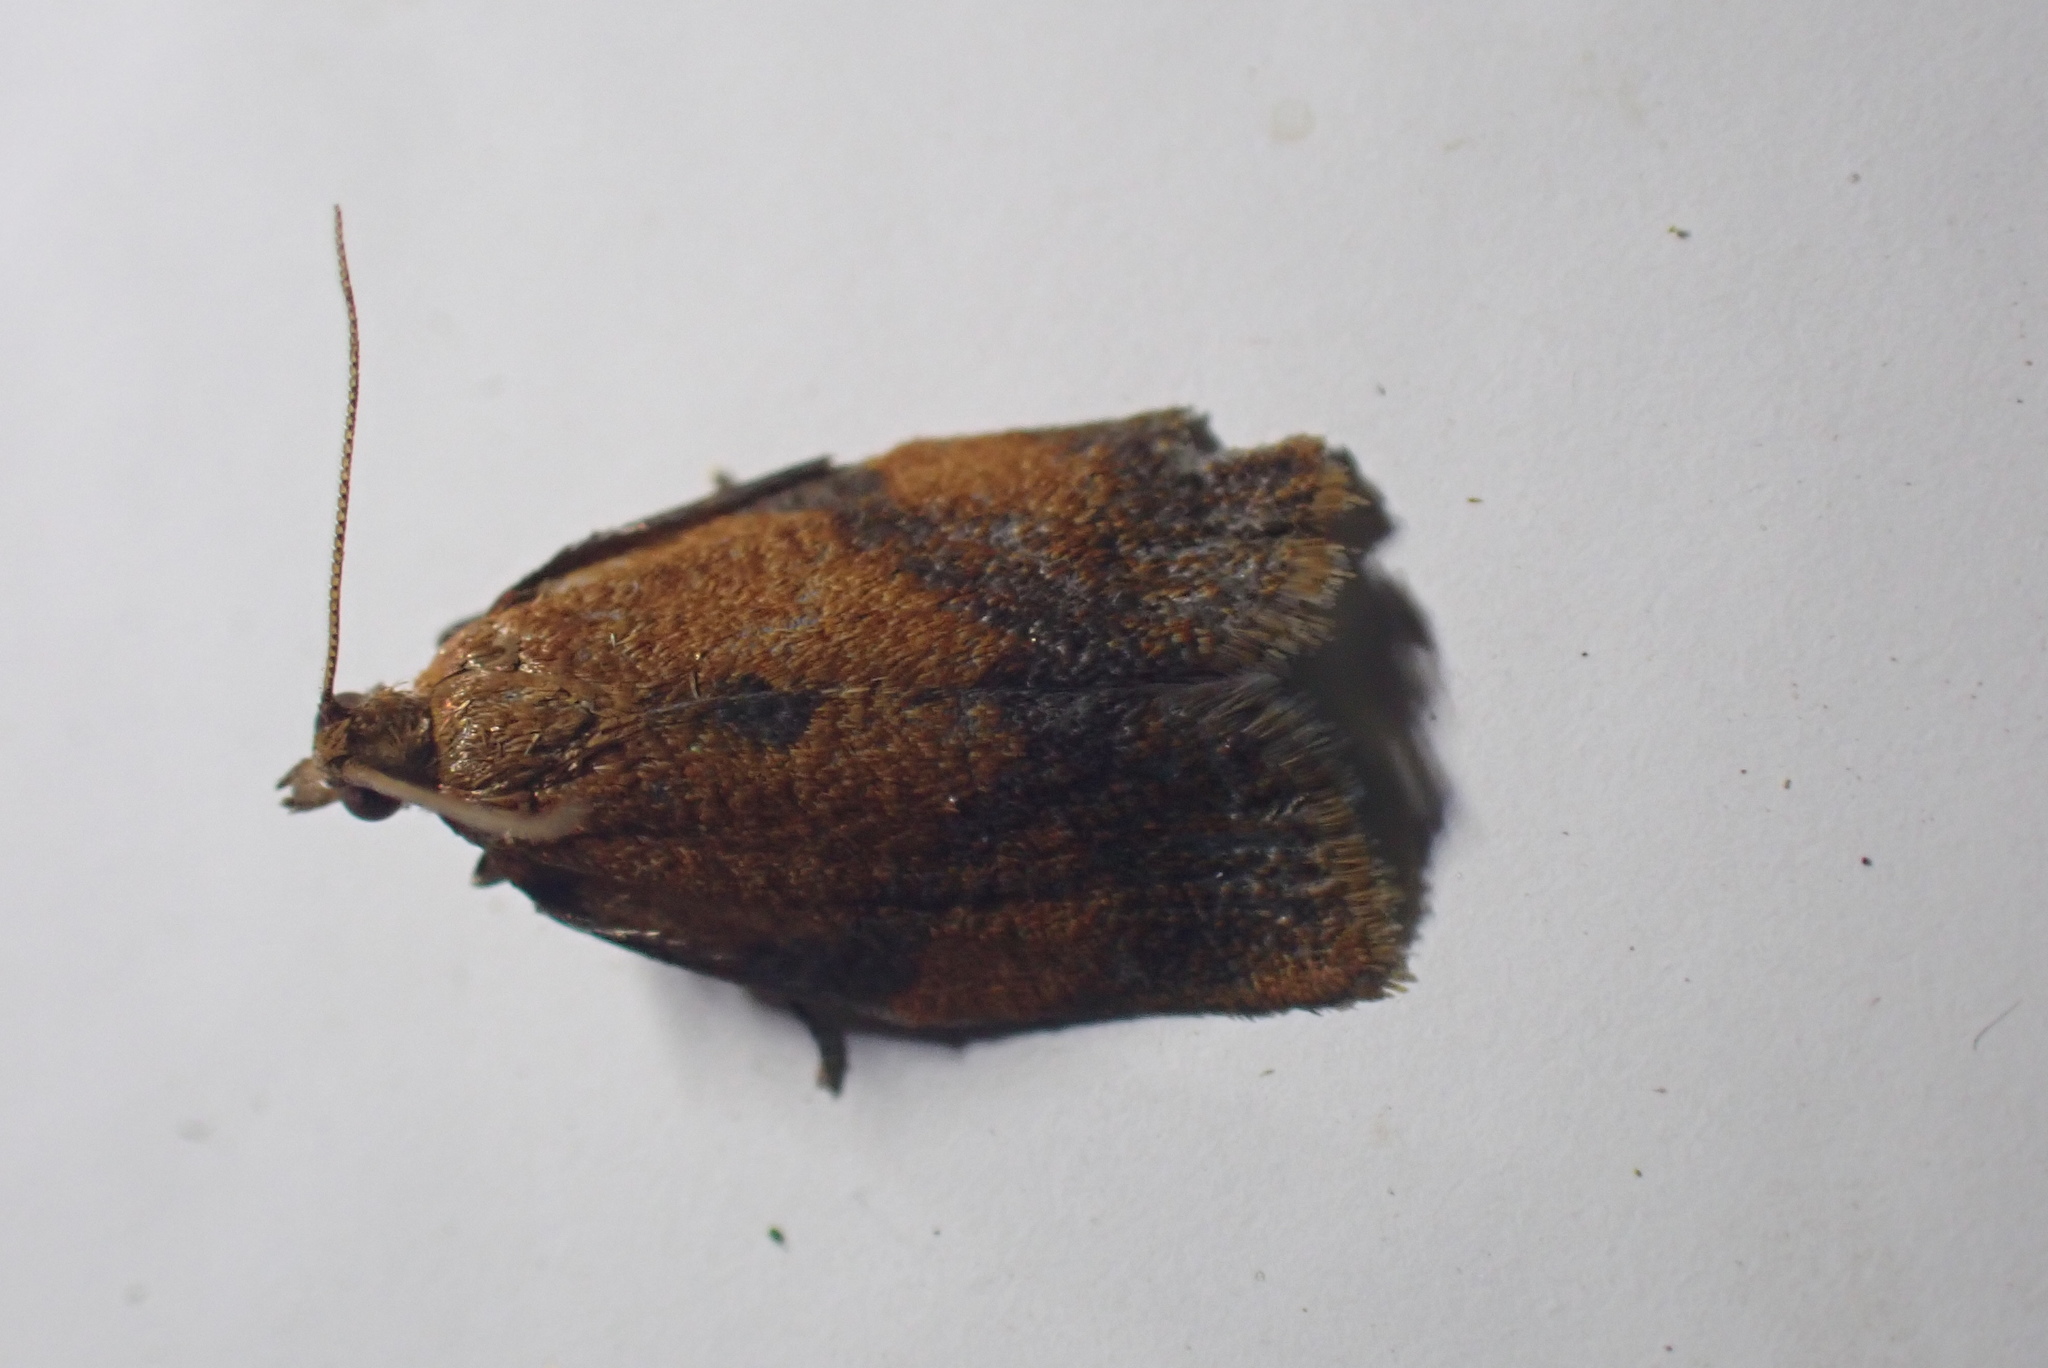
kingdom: Animalia
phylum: Arthropoda
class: Insecta
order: Lepidoptera
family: Tortricidae
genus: Clepsis
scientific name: Clepsis consimilana
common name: Privet tortrix
